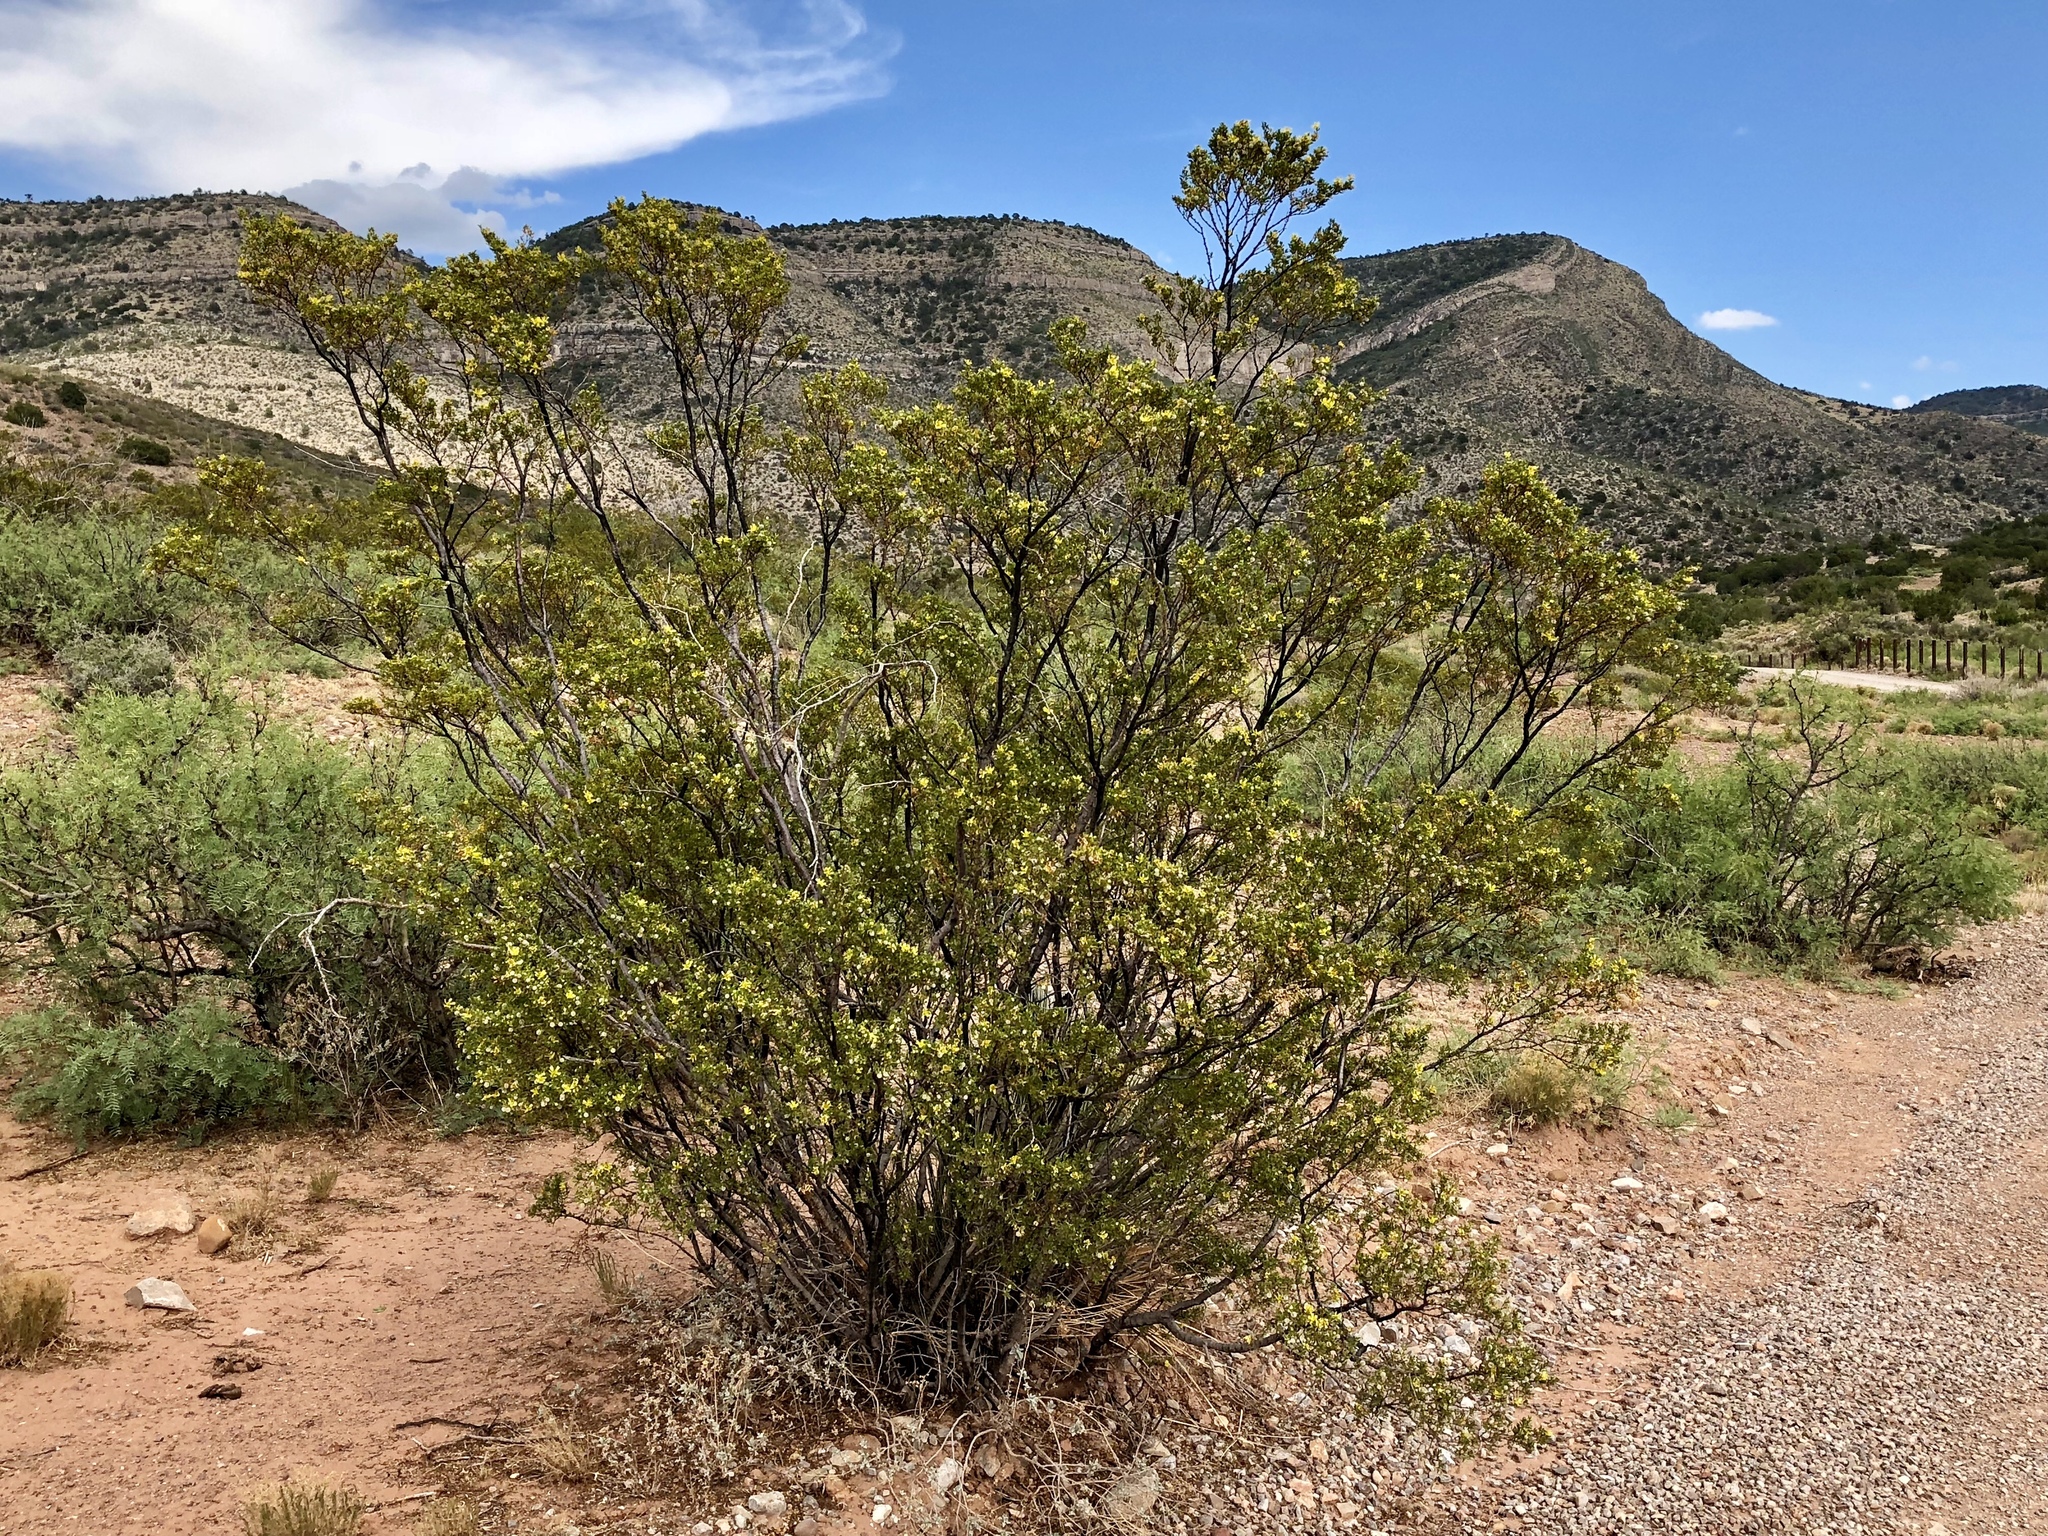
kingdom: Plantae
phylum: Tracheophyta
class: Magnoliopsida
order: Zygophyllales
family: Zygophyllaceae
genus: Larrea
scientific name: Larrea tridentata
